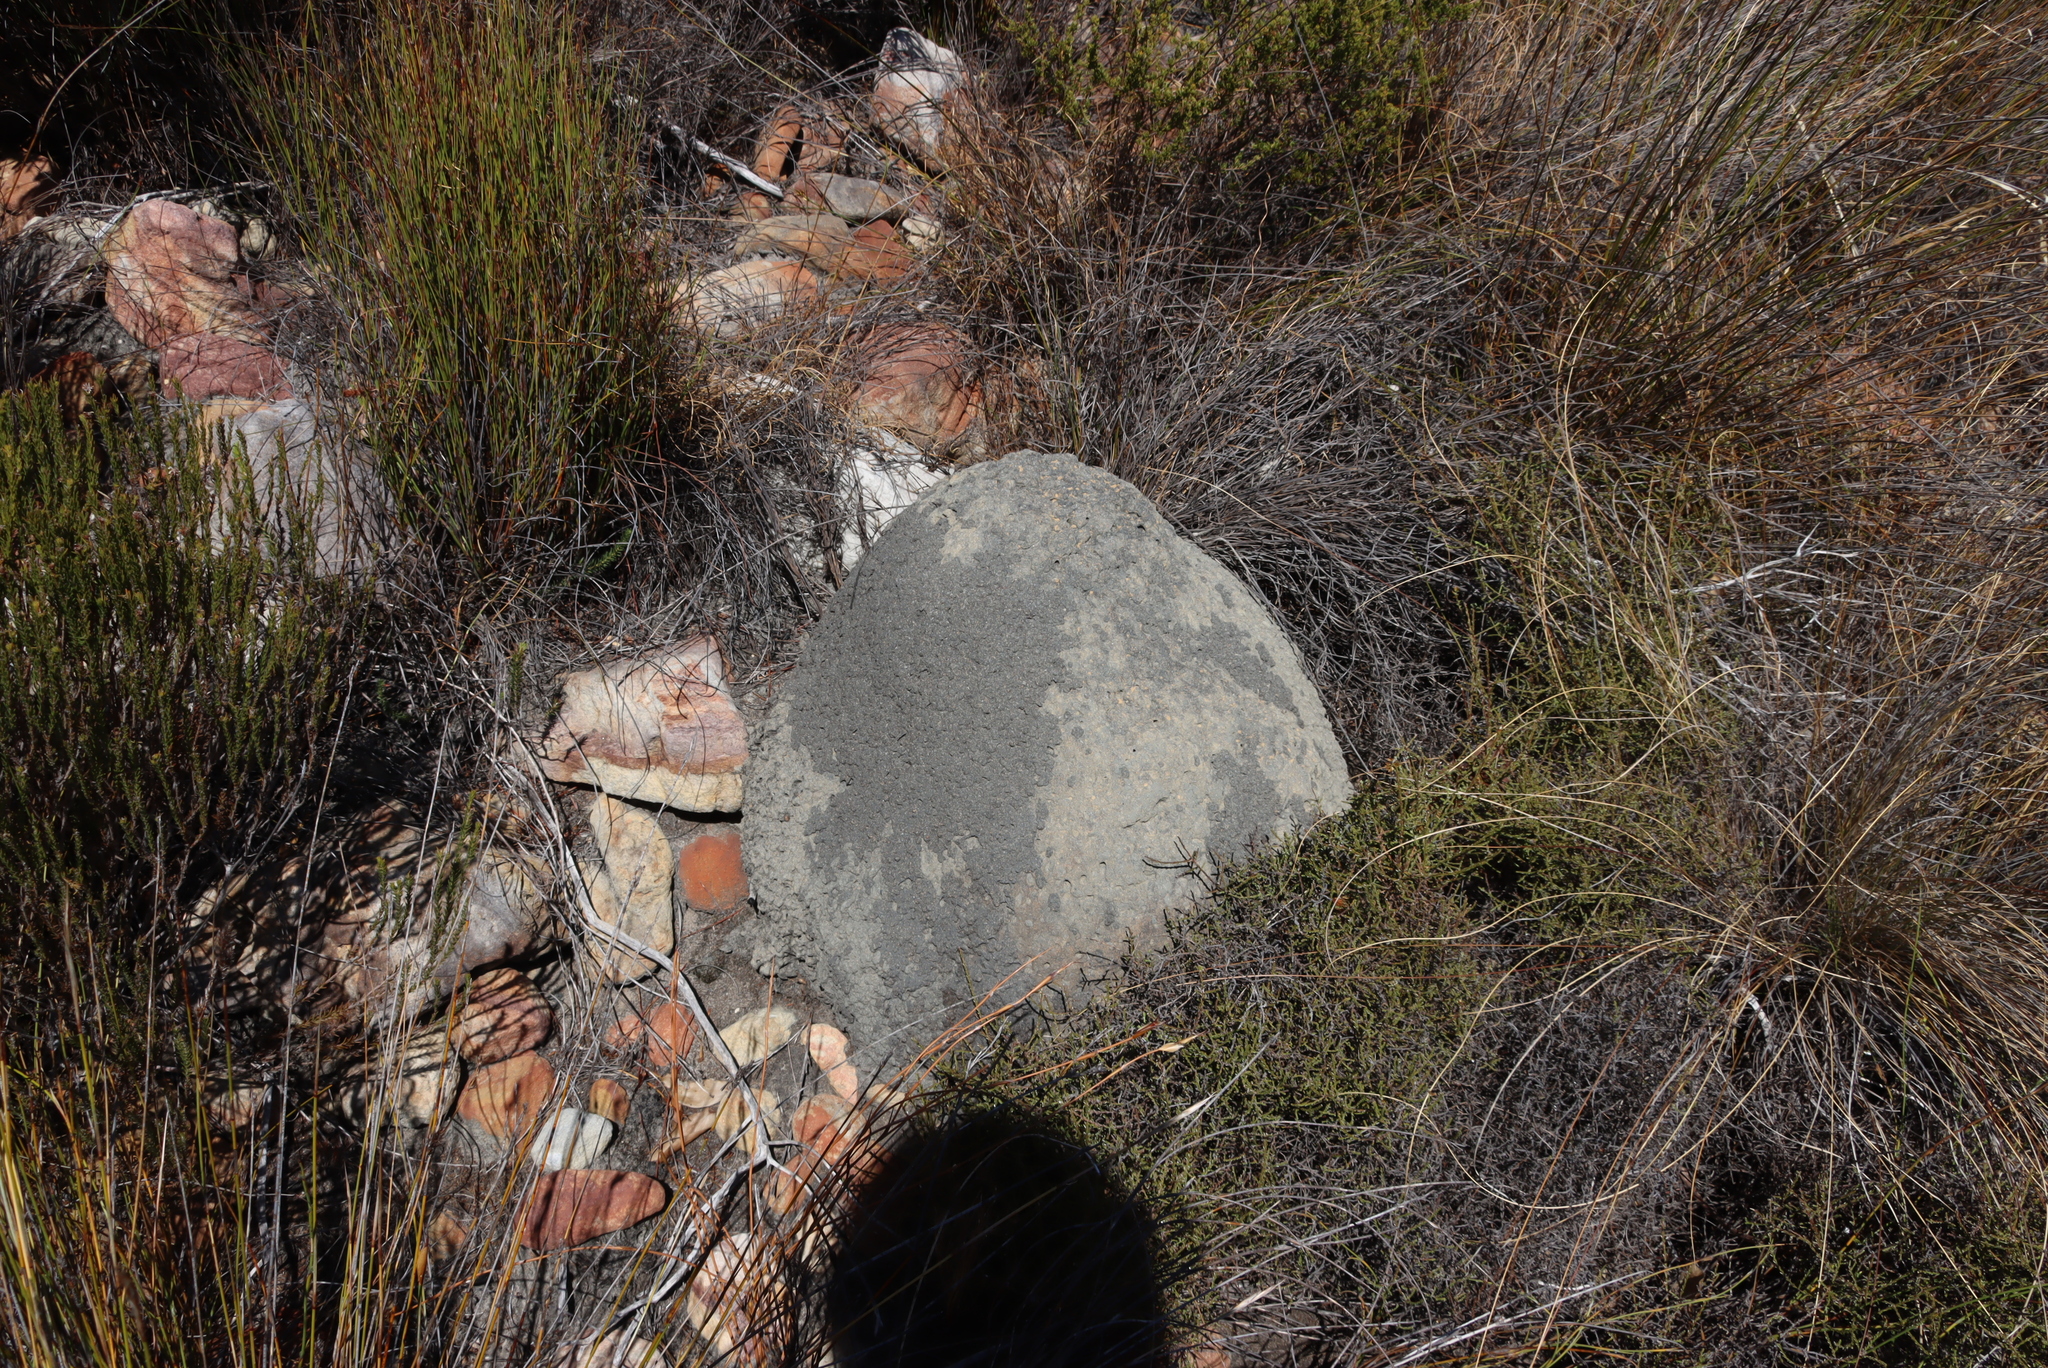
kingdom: Animalia
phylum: Arthropoda
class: Insecta
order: Blattodea
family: Termitidae
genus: Amitermes
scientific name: Amitermes hastatus
